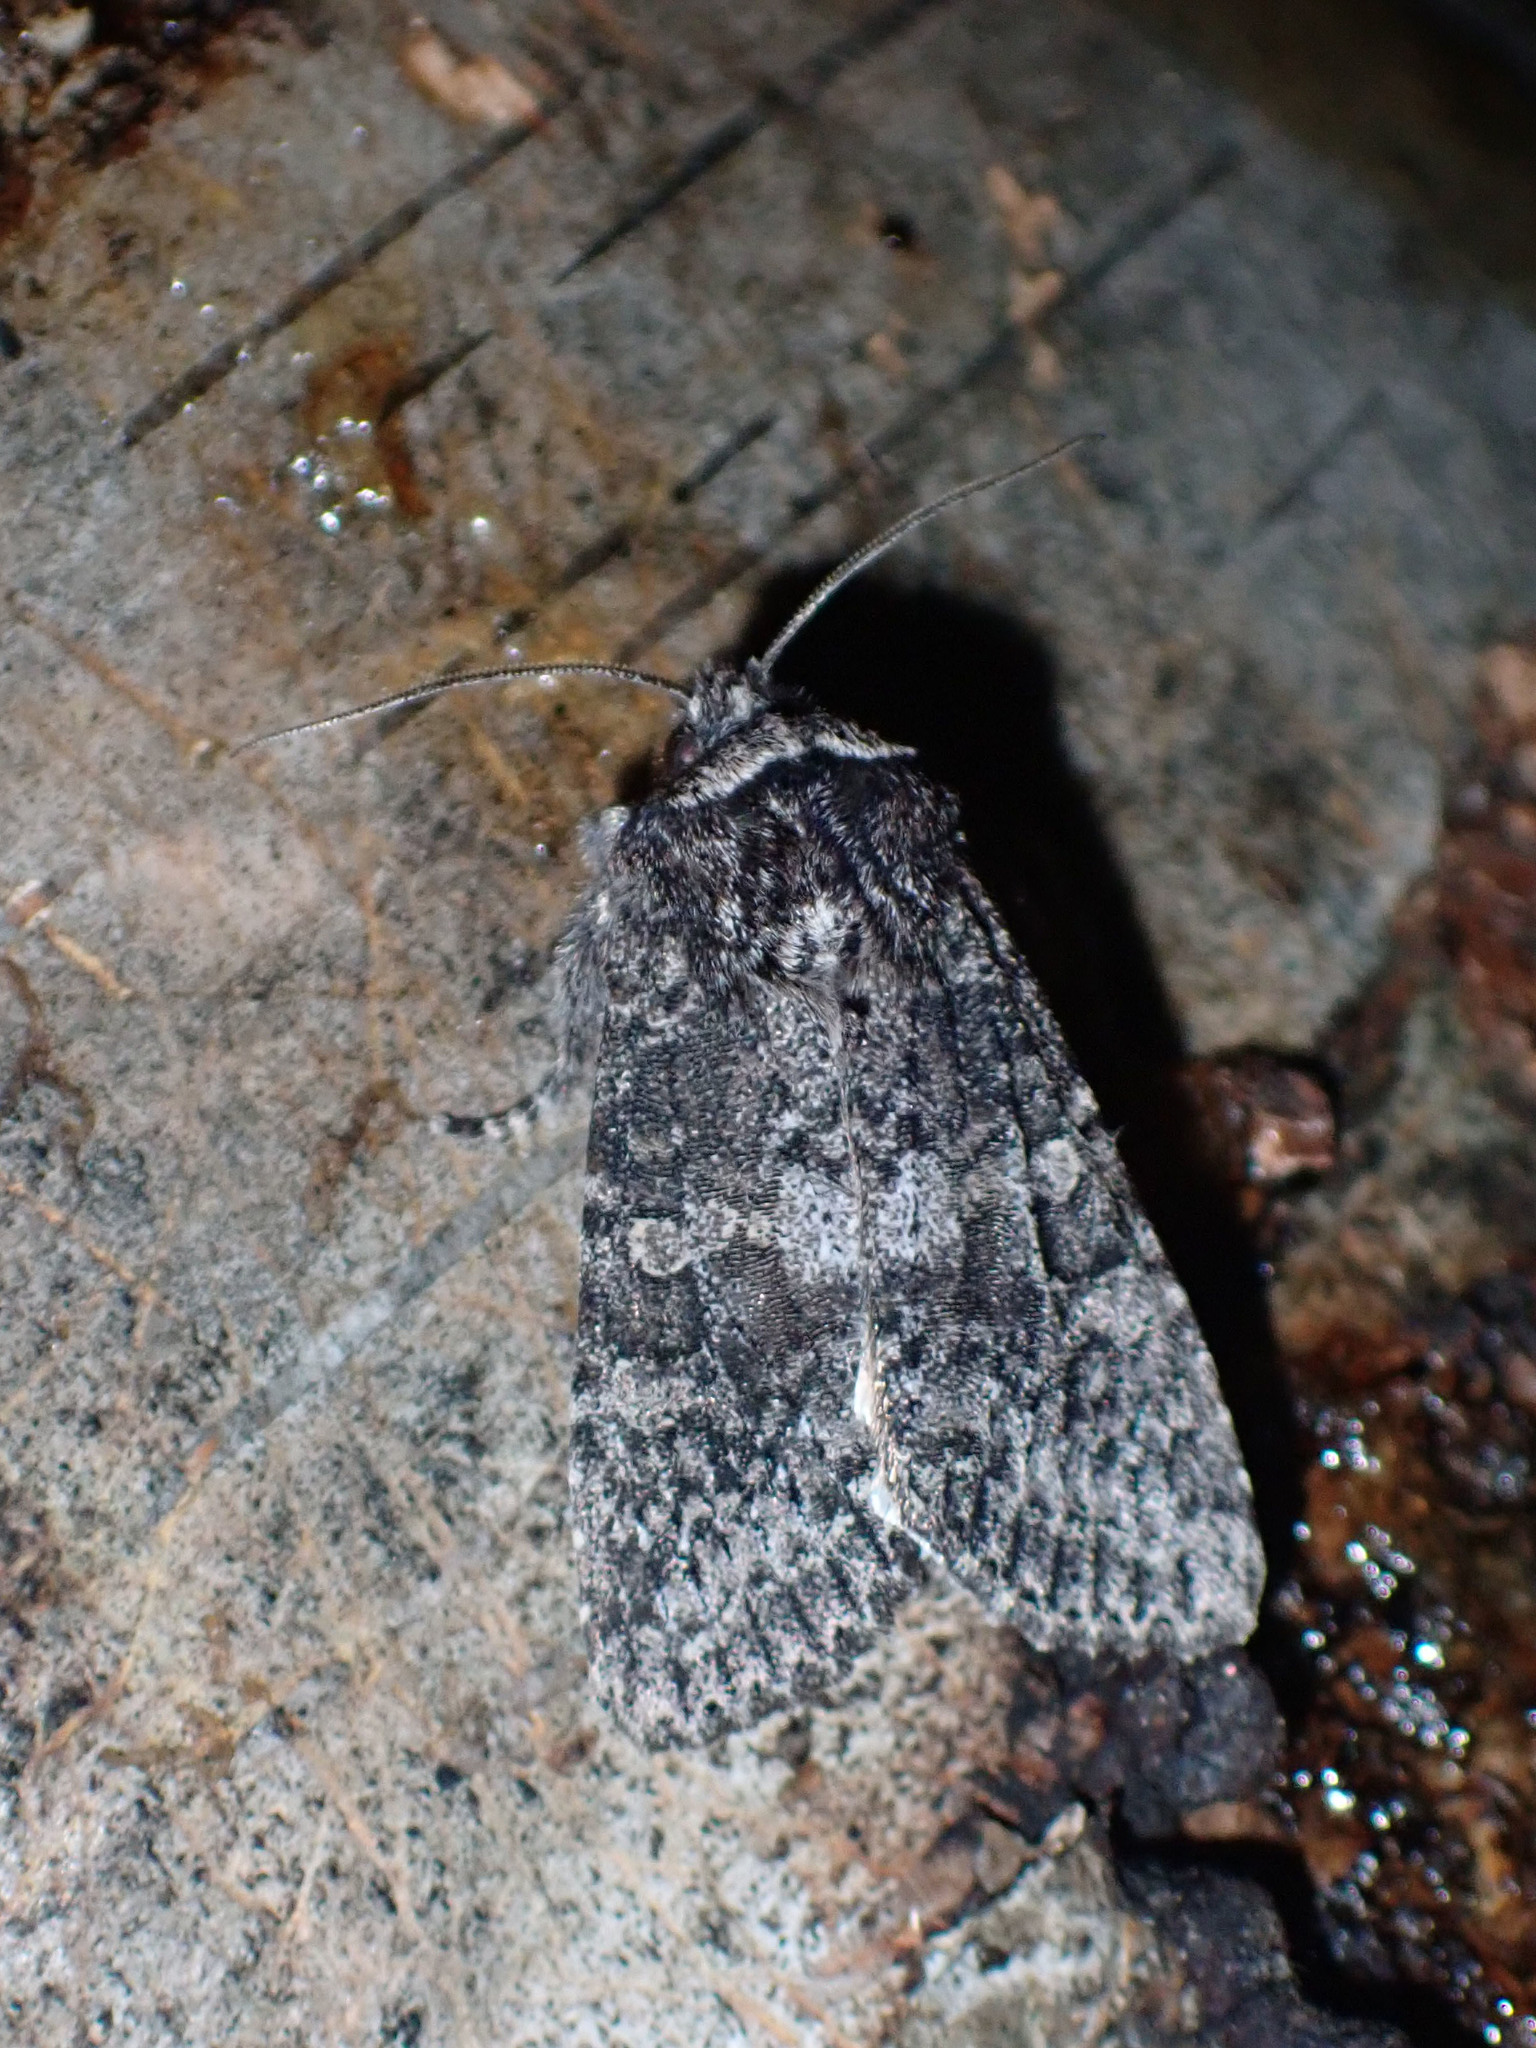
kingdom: Animalia
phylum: Arthropoda
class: Insecta
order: Lepidoptera
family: Noctuidae
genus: Egira
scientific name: Egira dolosa
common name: Lined black aspen cat.
